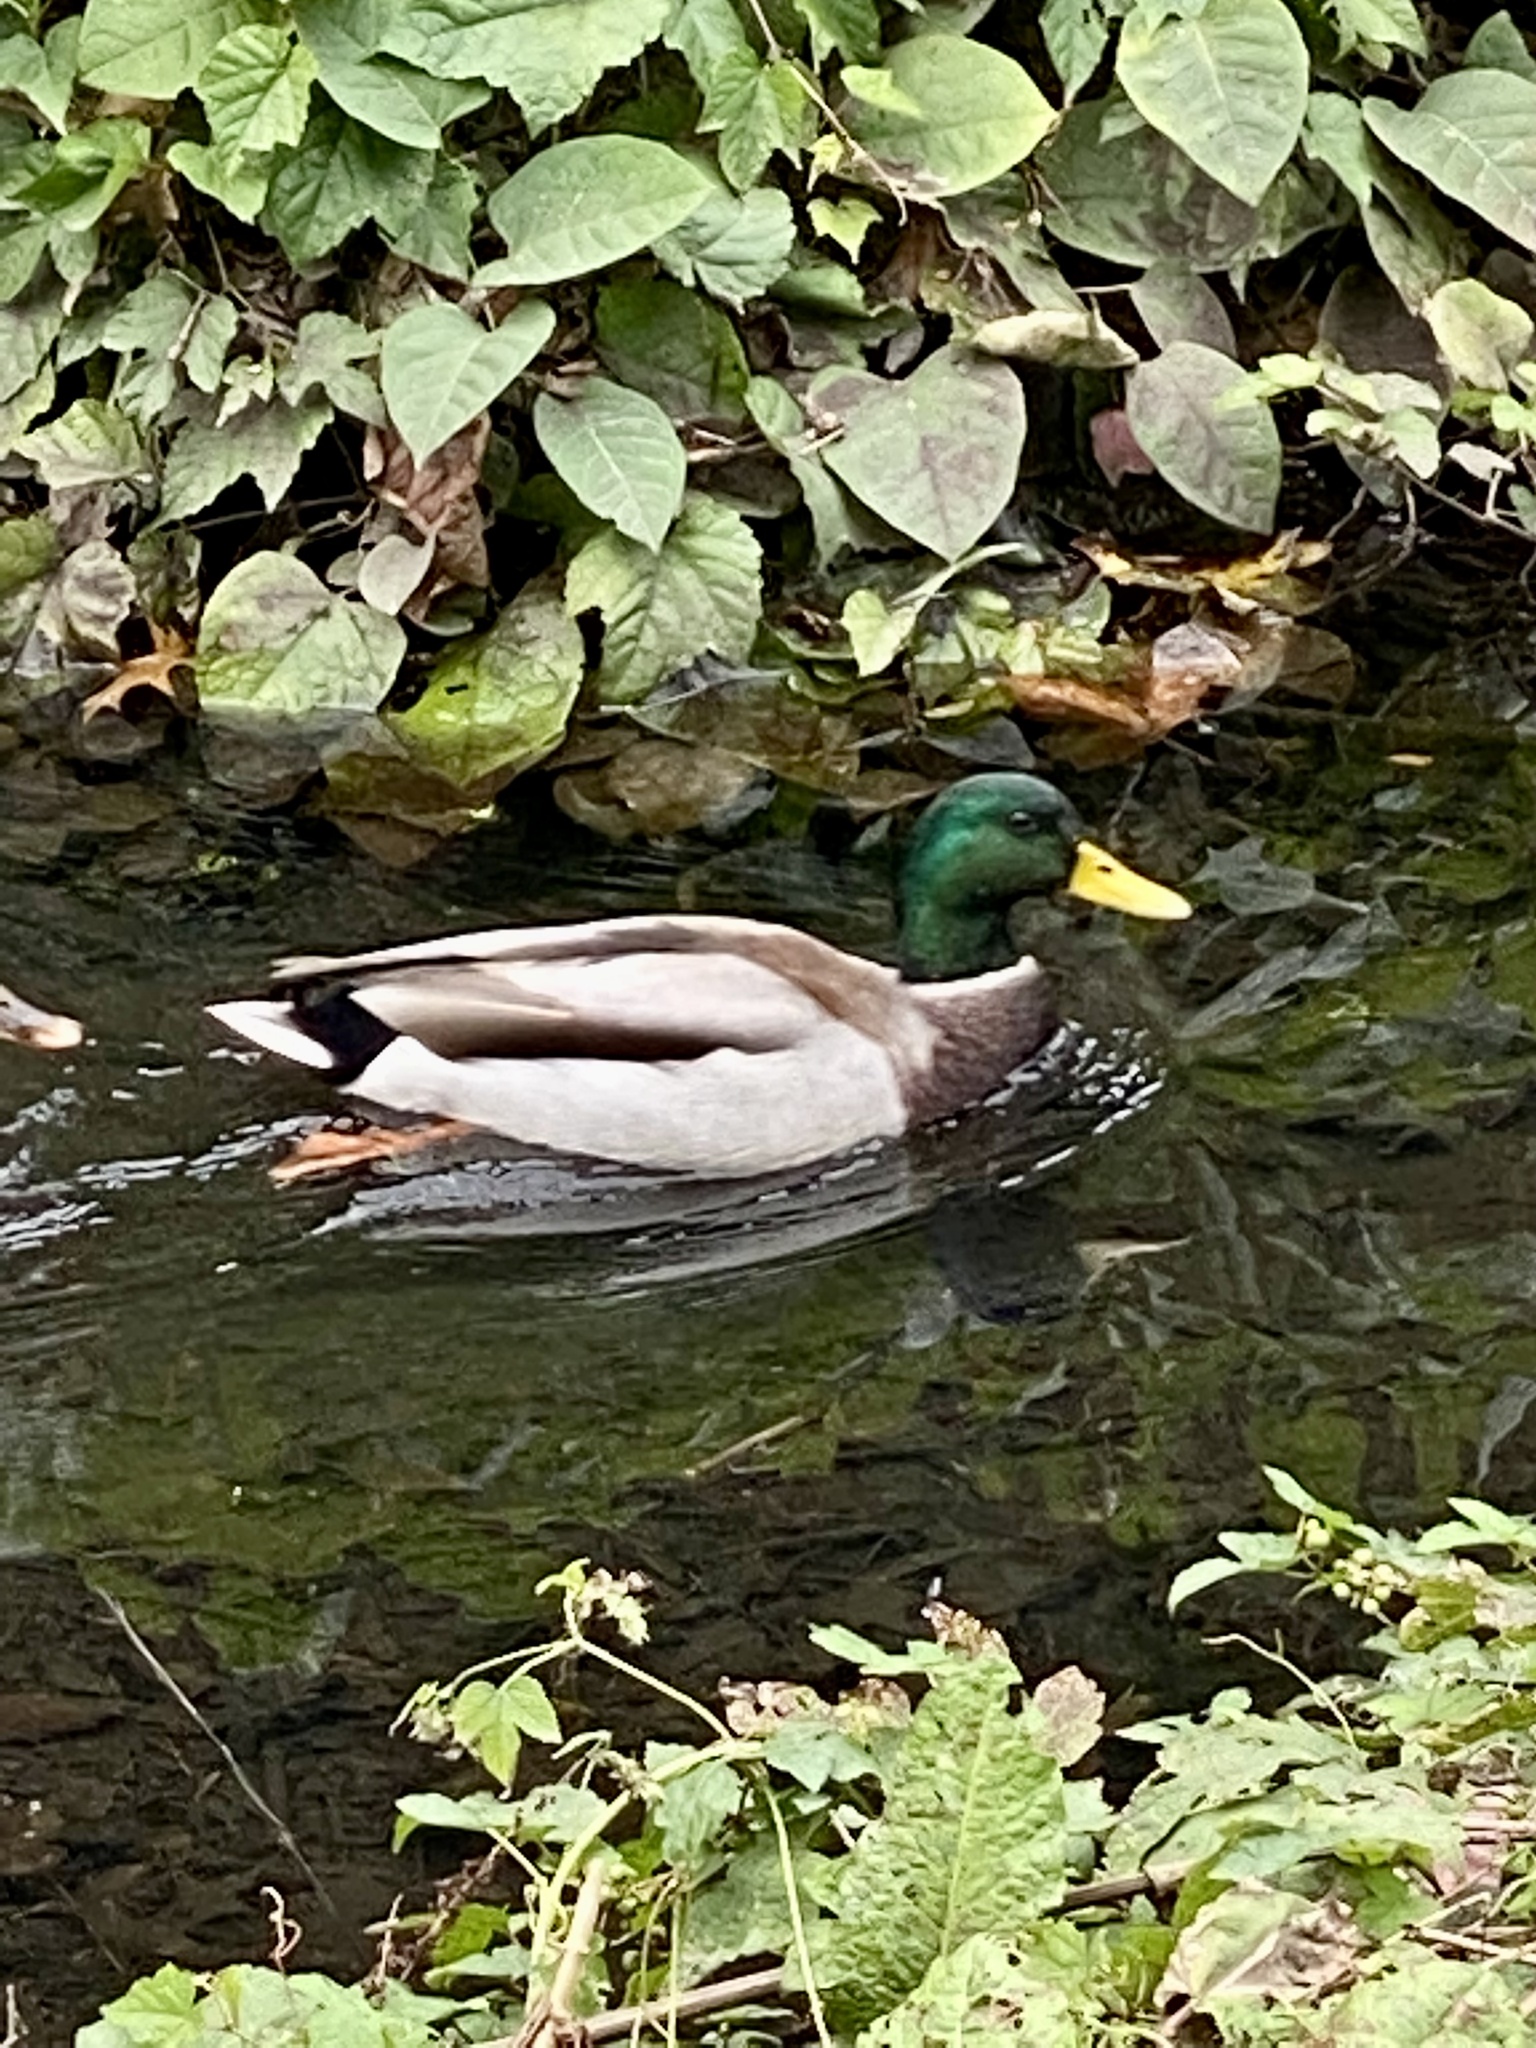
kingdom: Animalia
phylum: Chordata
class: Aves
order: Anseriformes
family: Anatidae
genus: Anas
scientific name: Anas platyrhynchos
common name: Mallard
